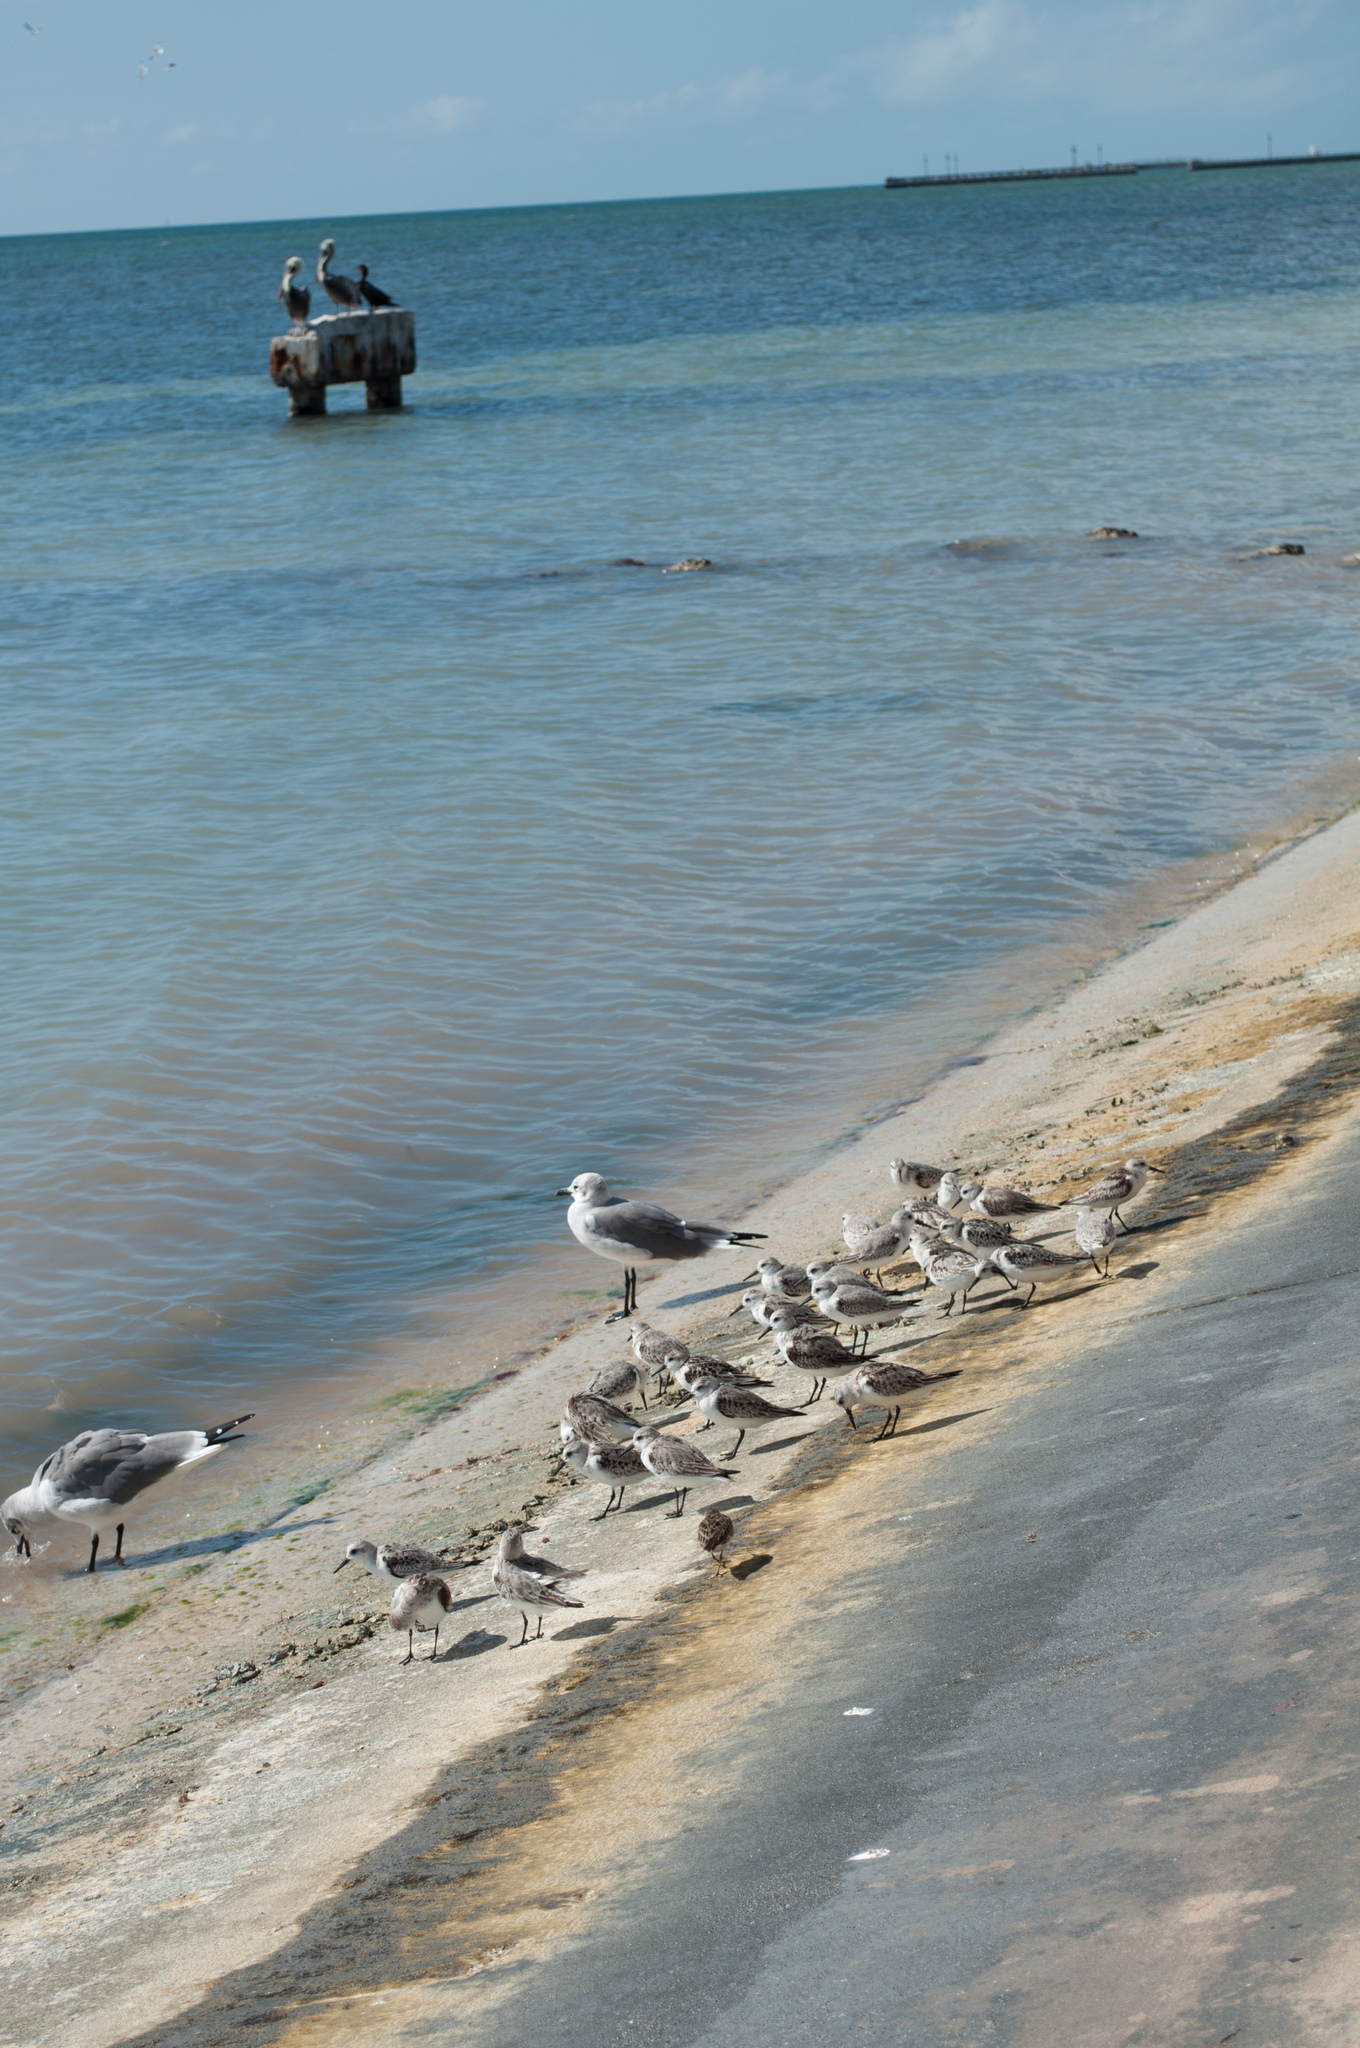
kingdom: Animalia
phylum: Chordata
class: Aves
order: Charadriiformes
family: Scolopacidae
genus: Calidris
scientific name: Calidris alba
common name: Sanderling
